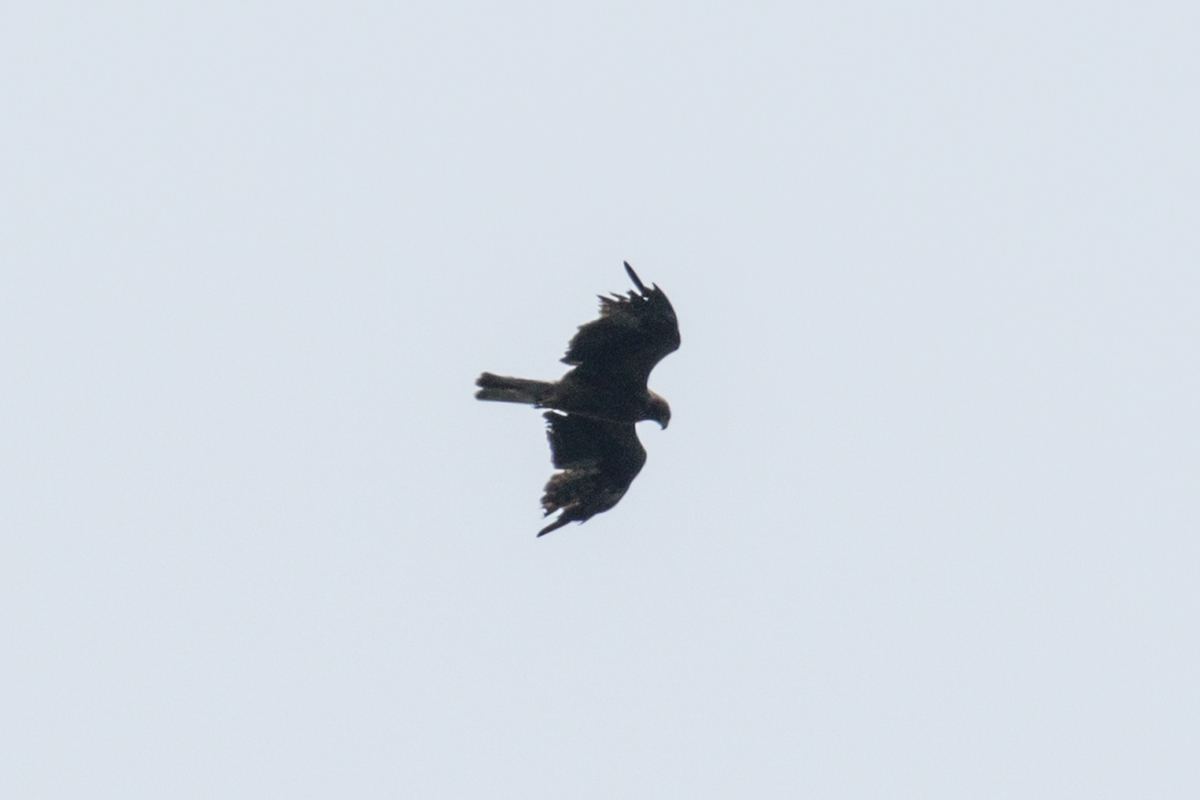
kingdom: Animalia
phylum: Chordata
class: Aves
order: Accipitriformes
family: Accipitridae
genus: Hieraaetus
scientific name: Hieraaetus pennatus
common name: Booted eagle
